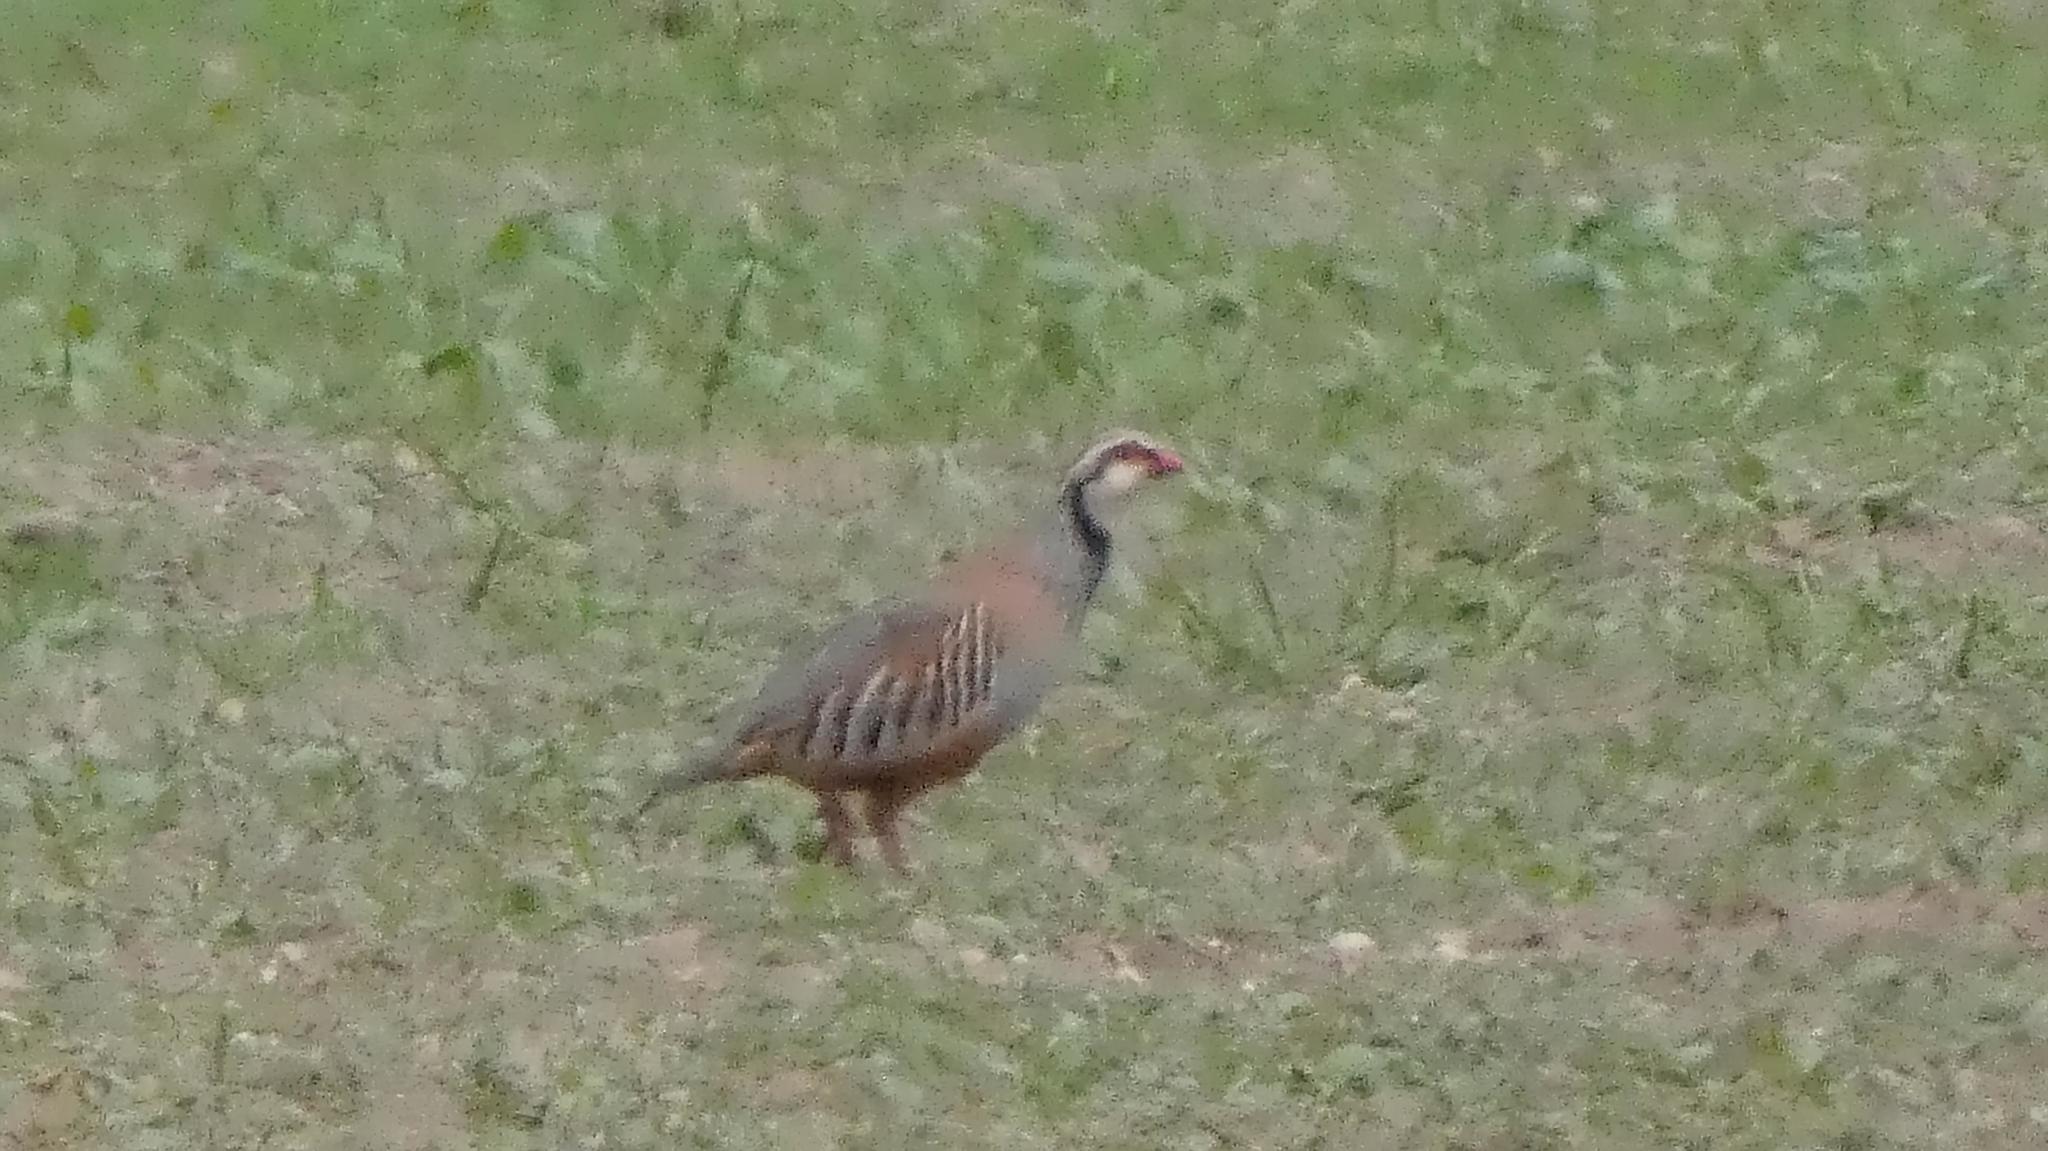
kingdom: Animalia
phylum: Chordata
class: Aves
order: Galliformes
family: Phasianidae
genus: Alectoris
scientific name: Alectoris rufa
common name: Red-legged partridge
